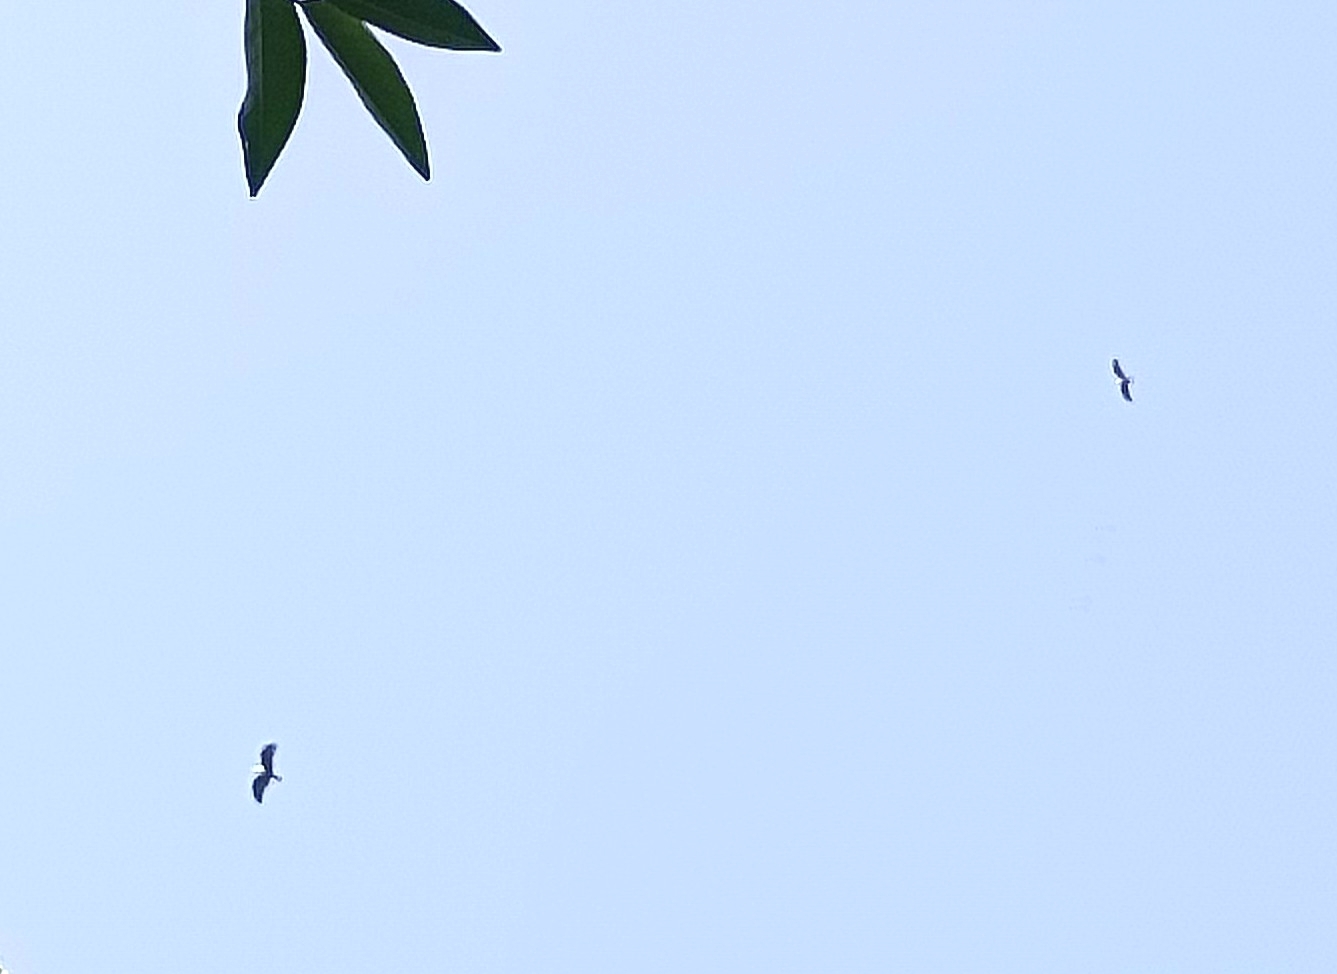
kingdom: Animalia
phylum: Chordata
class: Aves
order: Accipitriformes
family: Accipitridae
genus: Haliastur
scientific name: Haliastur indus
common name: Brahminy kite
